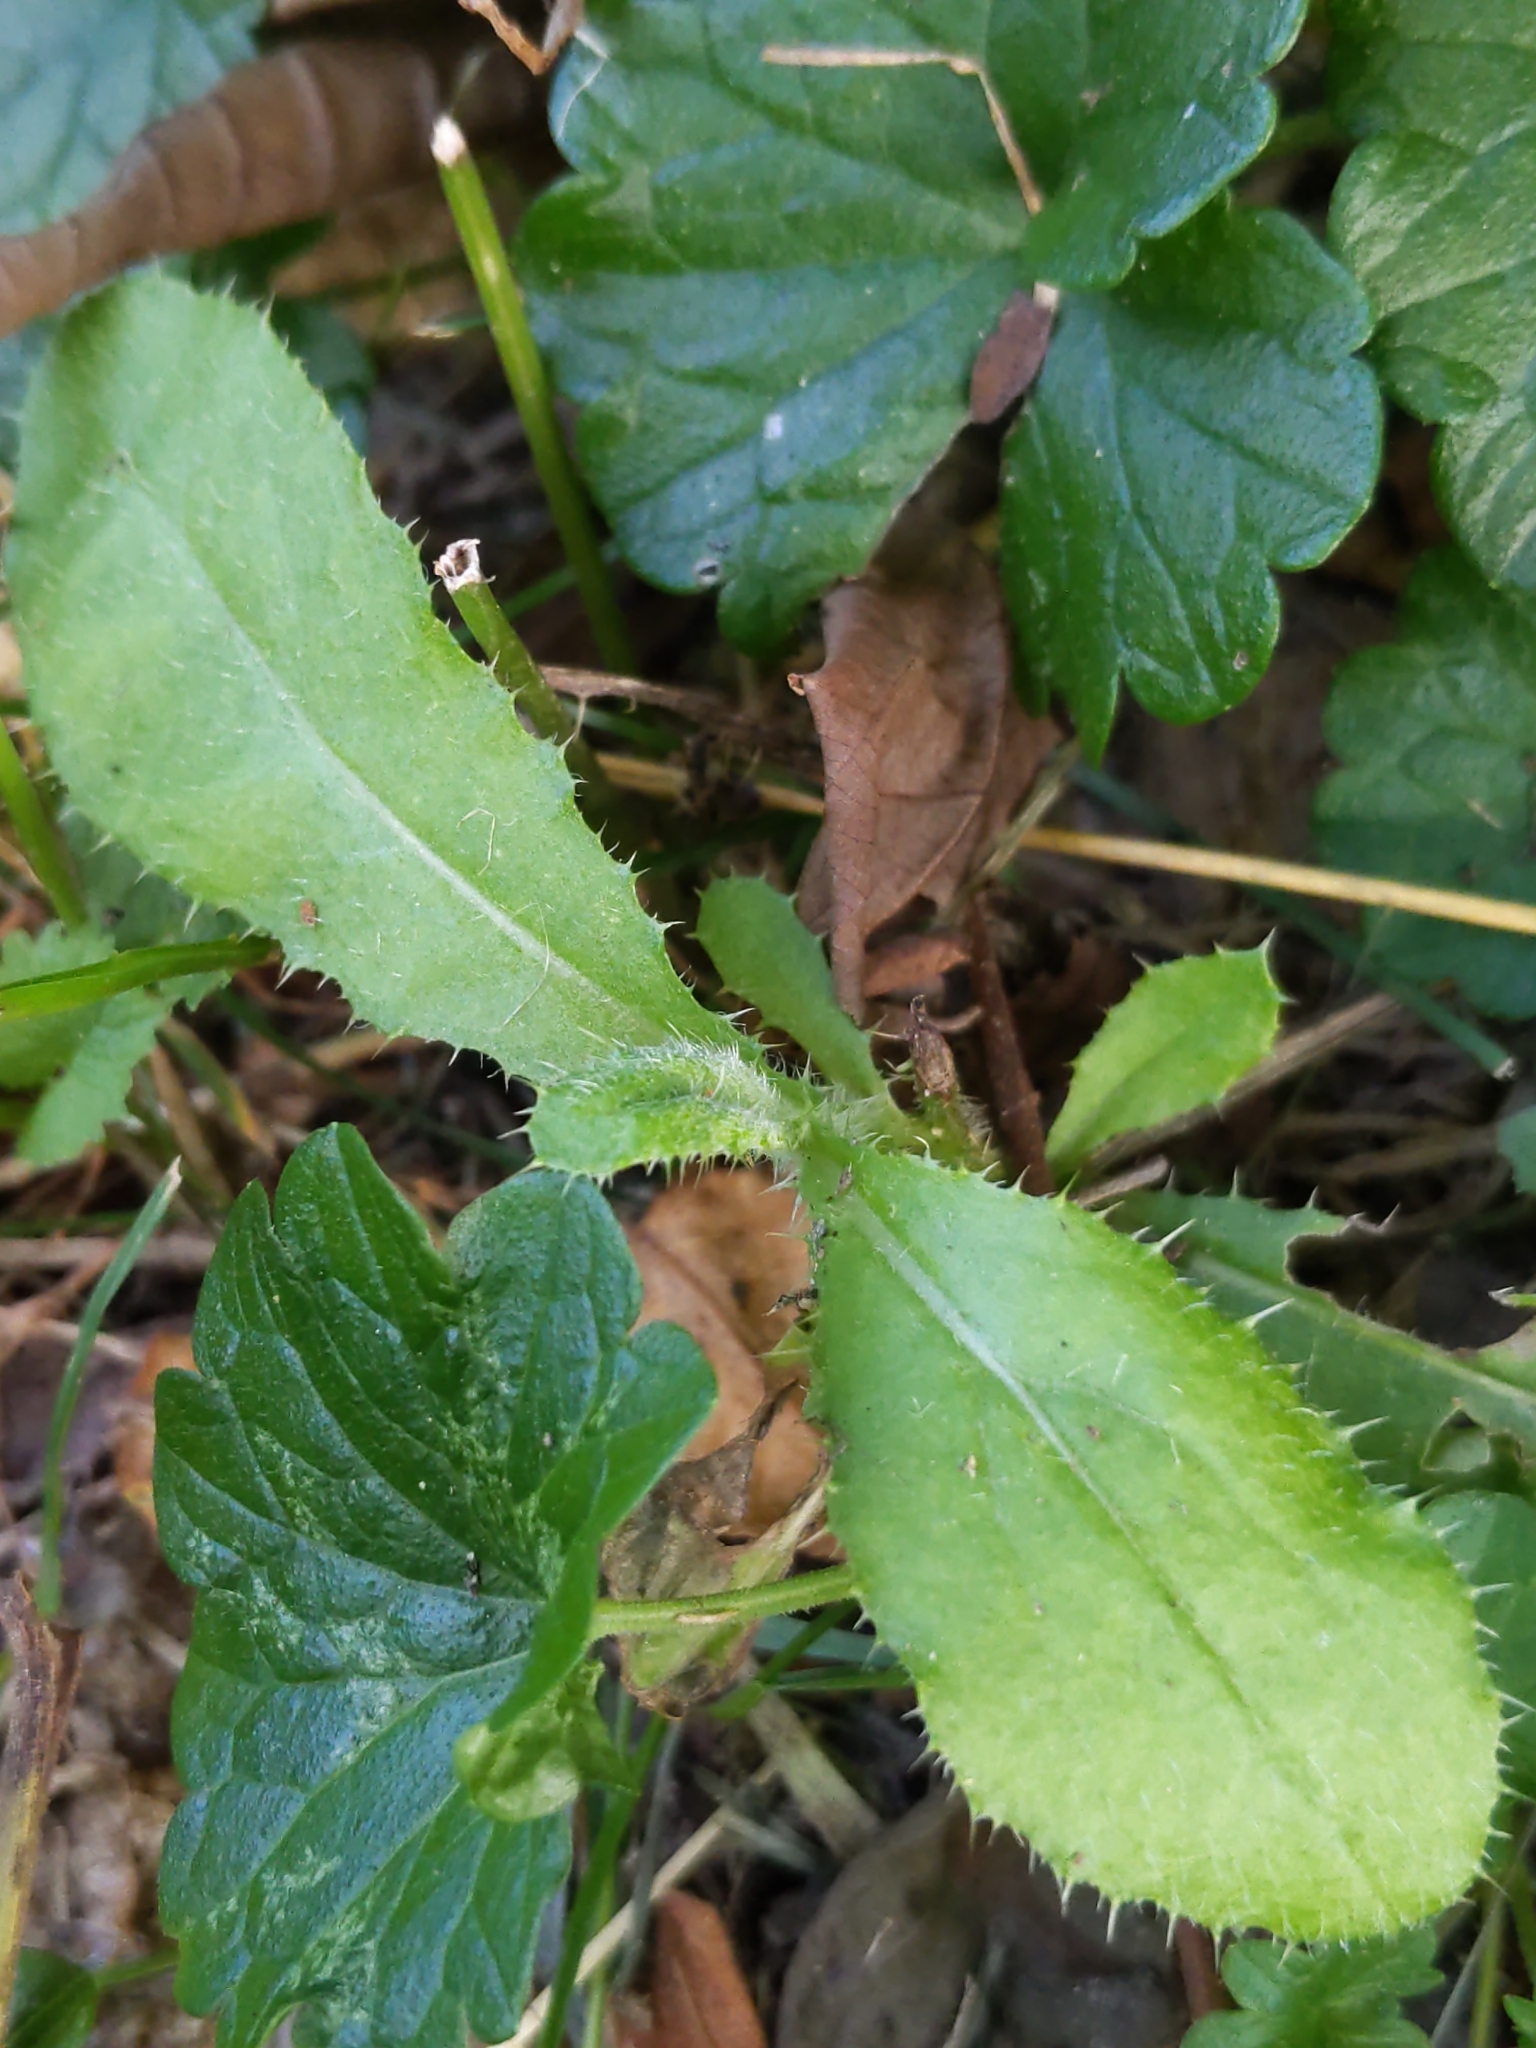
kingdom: Plantae
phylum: Tracheophyta
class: Magnoliopsida
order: Asterales
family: Asteraceae
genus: Cirsium
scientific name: Cirsium arvense
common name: Creeping thistle
